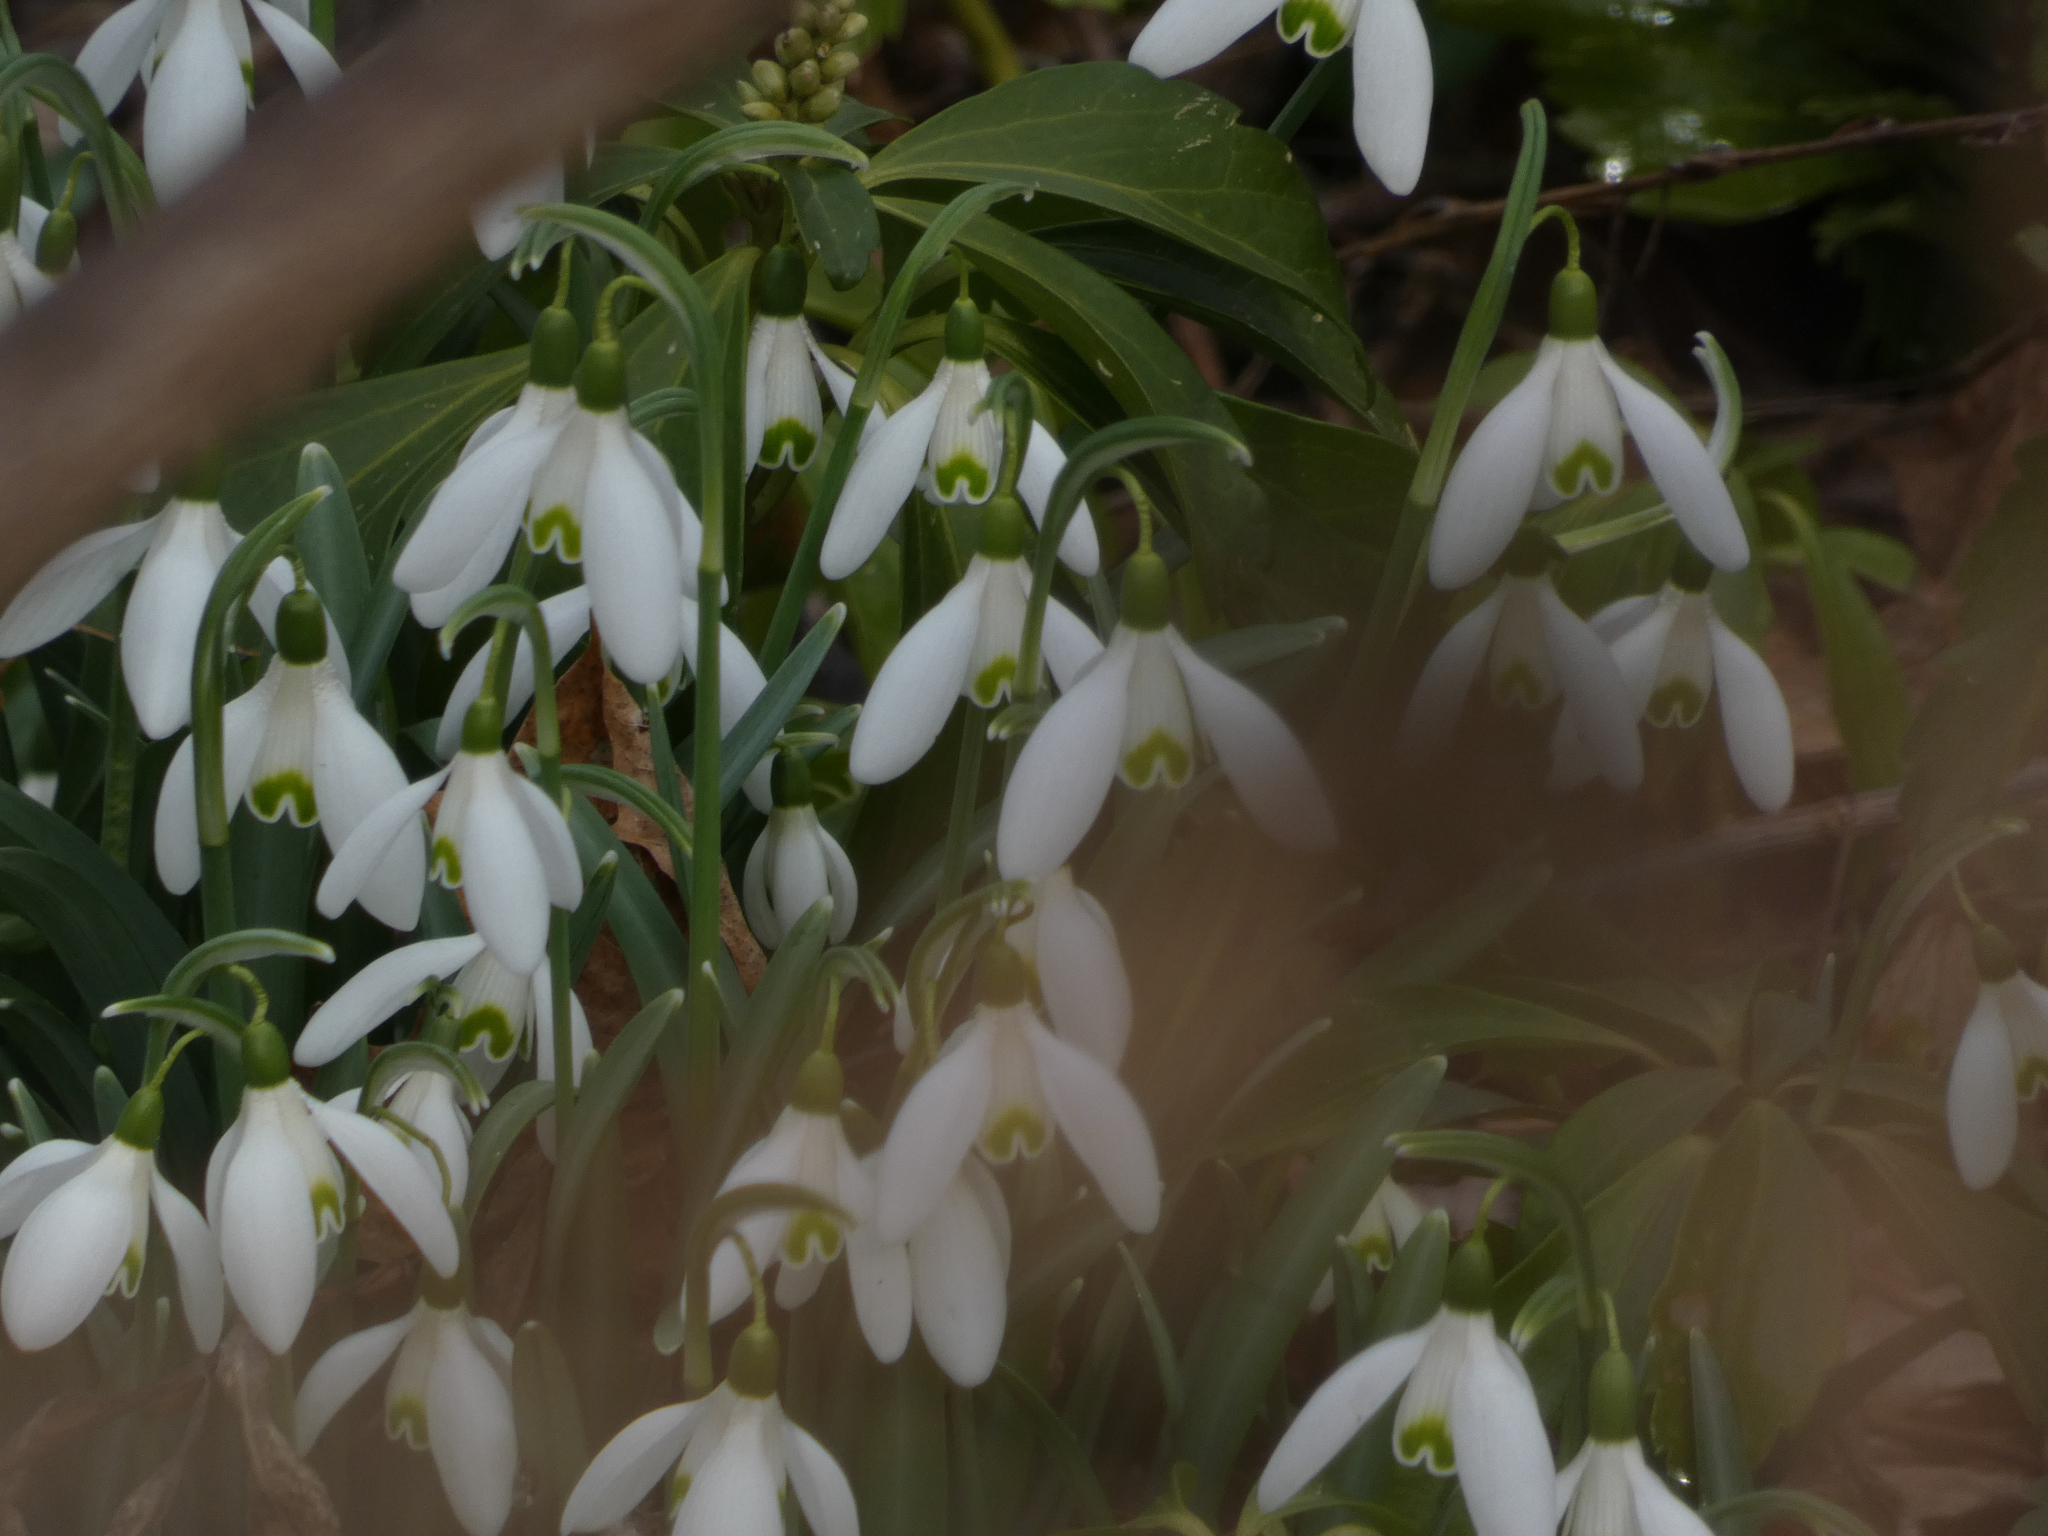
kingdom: Plantae
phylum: Tracheophyta
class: Liliopsida
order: Asparagales
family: Amaryllidaceae
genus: Galanthus
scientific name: Galanthus nivalis
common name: Snowdrop
